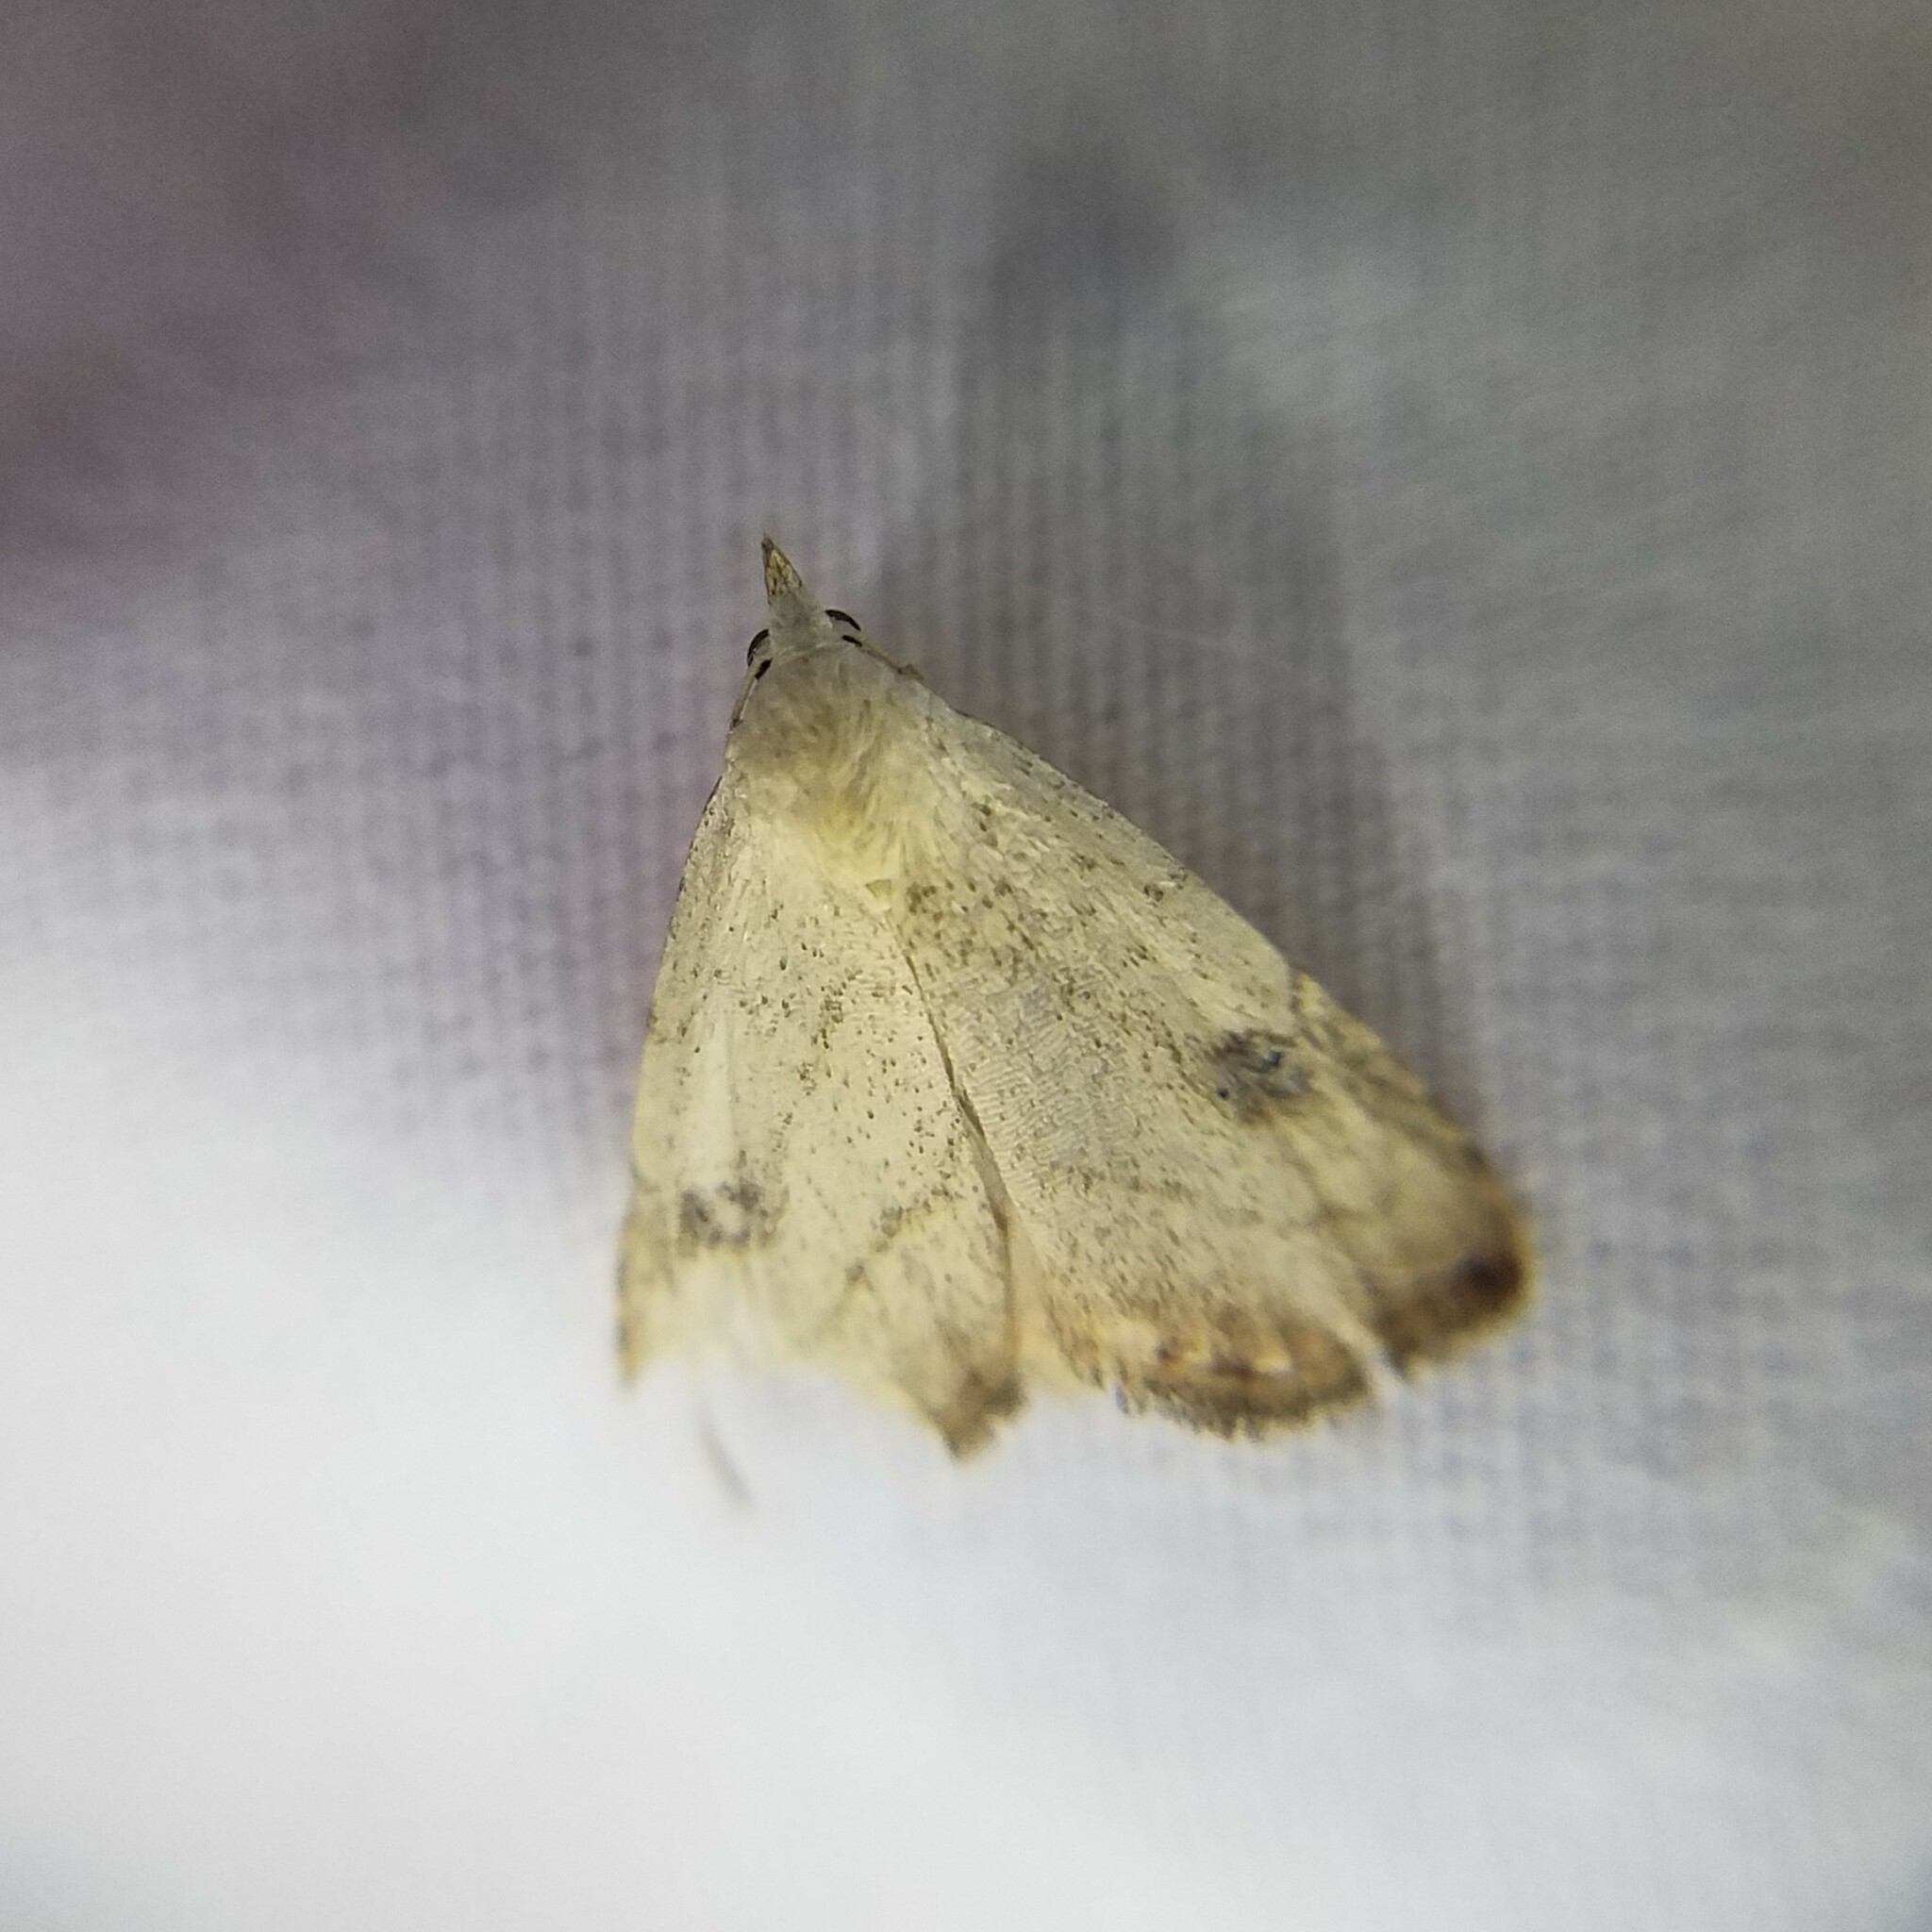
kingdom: Animalia
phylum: Arthropoda
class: Insecta
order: Lepidoptera
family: Erebidae
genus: Rivula
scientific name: Rivula propinqualis
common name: Spotted grass moth
